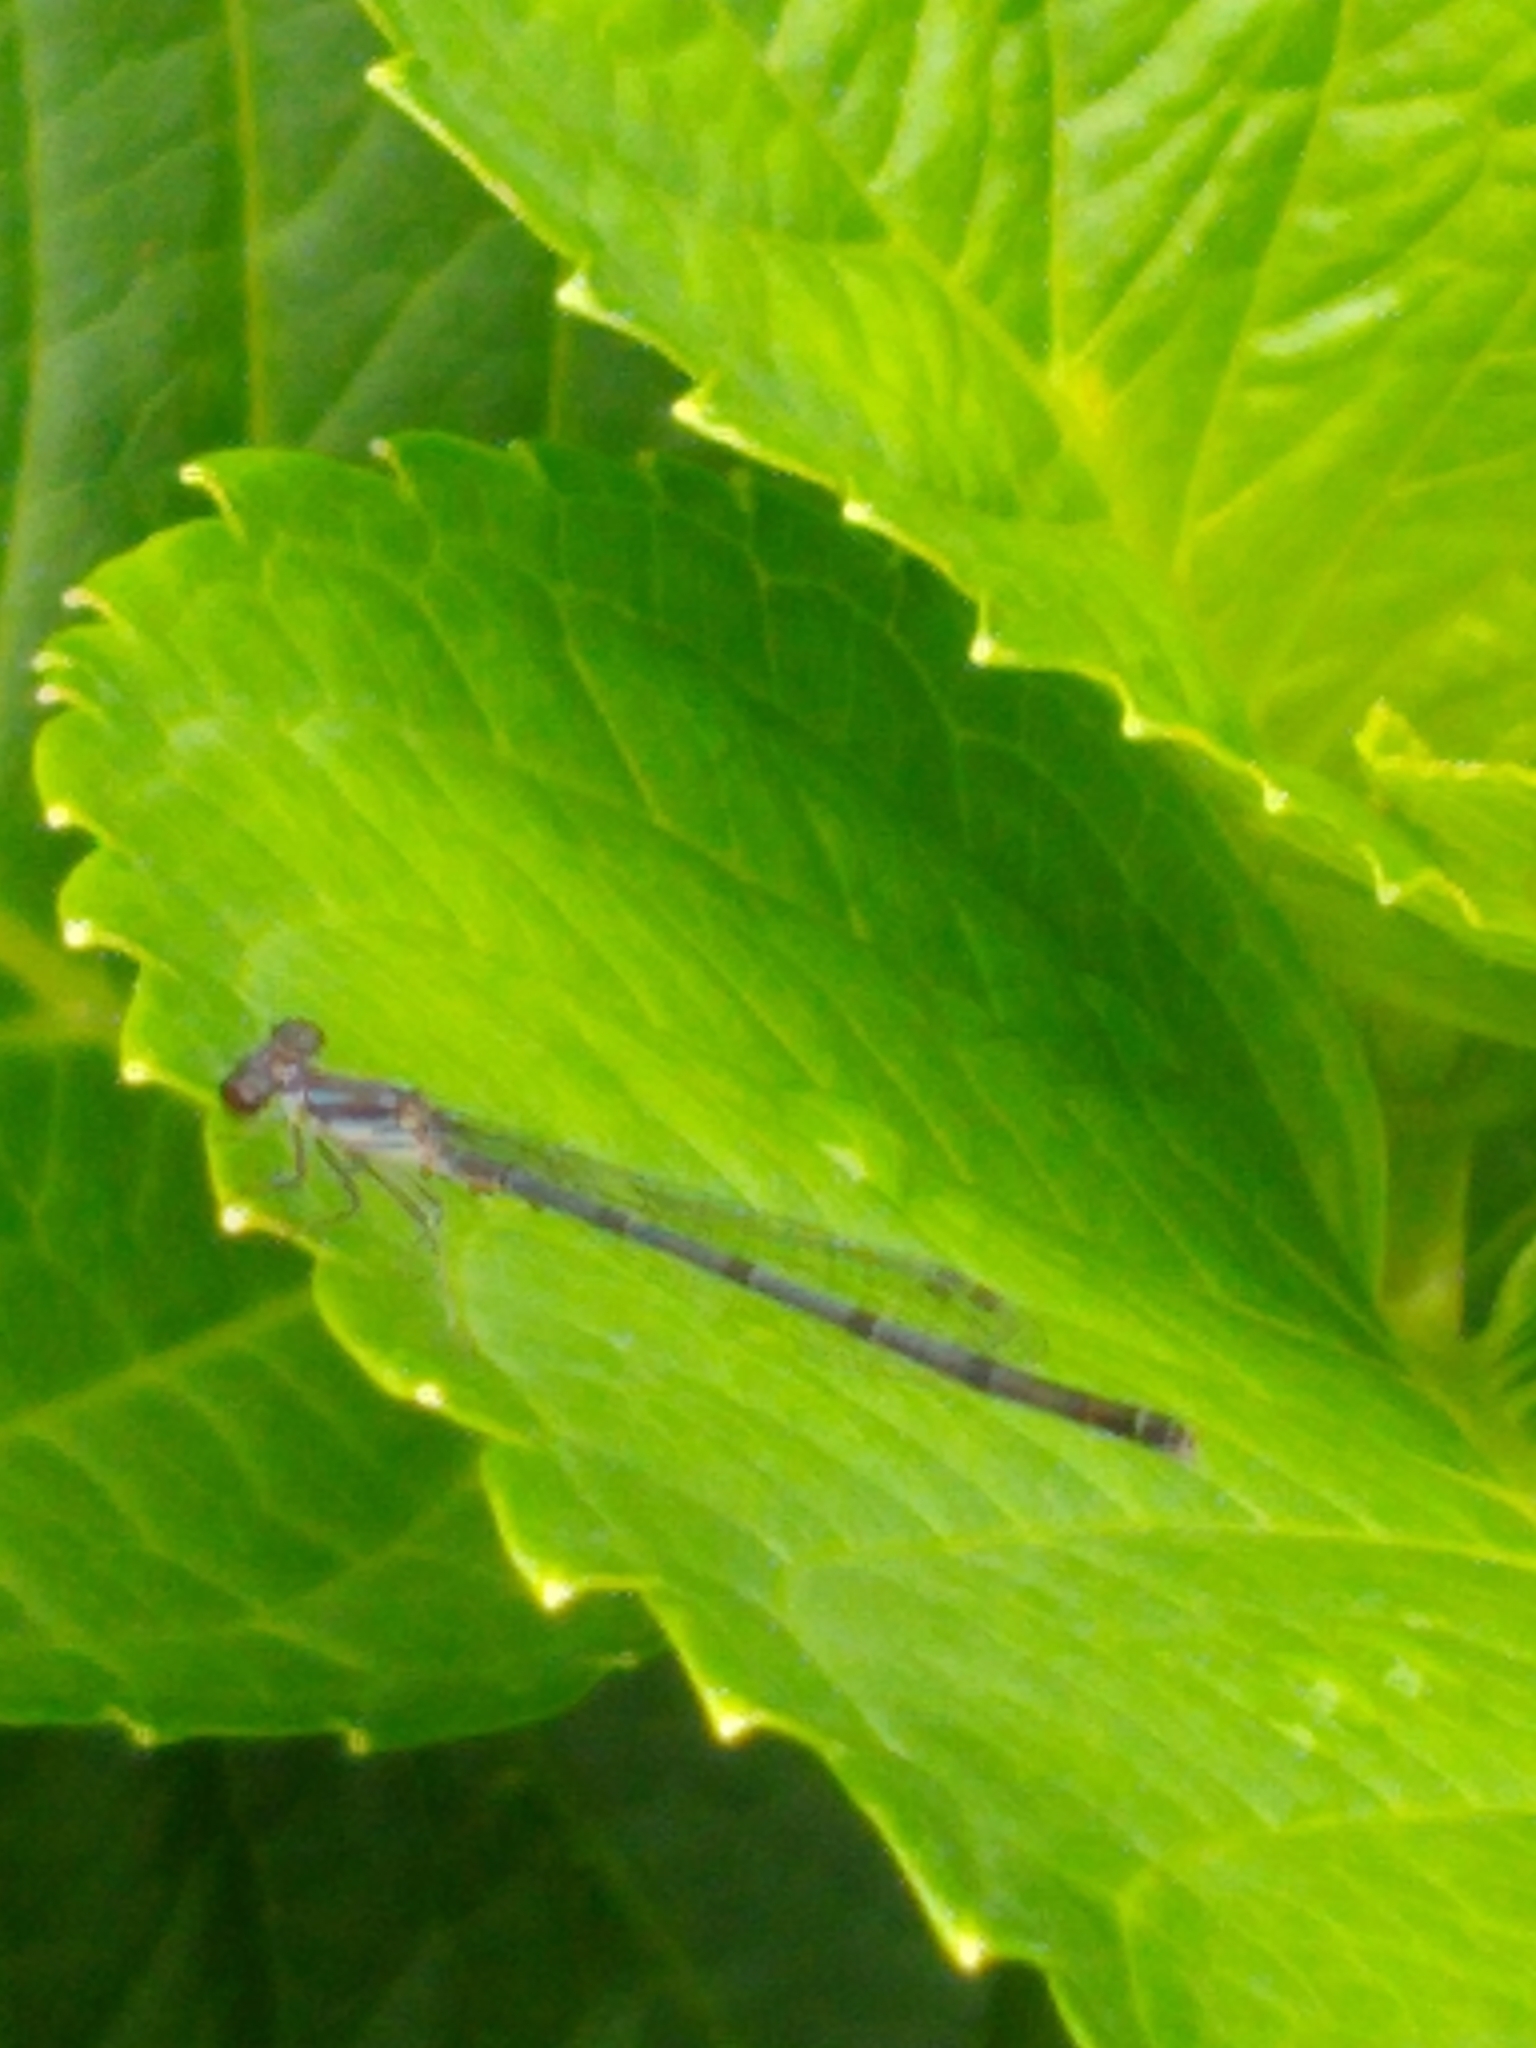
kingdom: Animalia
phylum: Arthropoda
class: Insecta
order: Odonata
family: Coenagrionidae
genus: Ischnura
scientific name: Ischnura posita
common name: Fragile forktail
